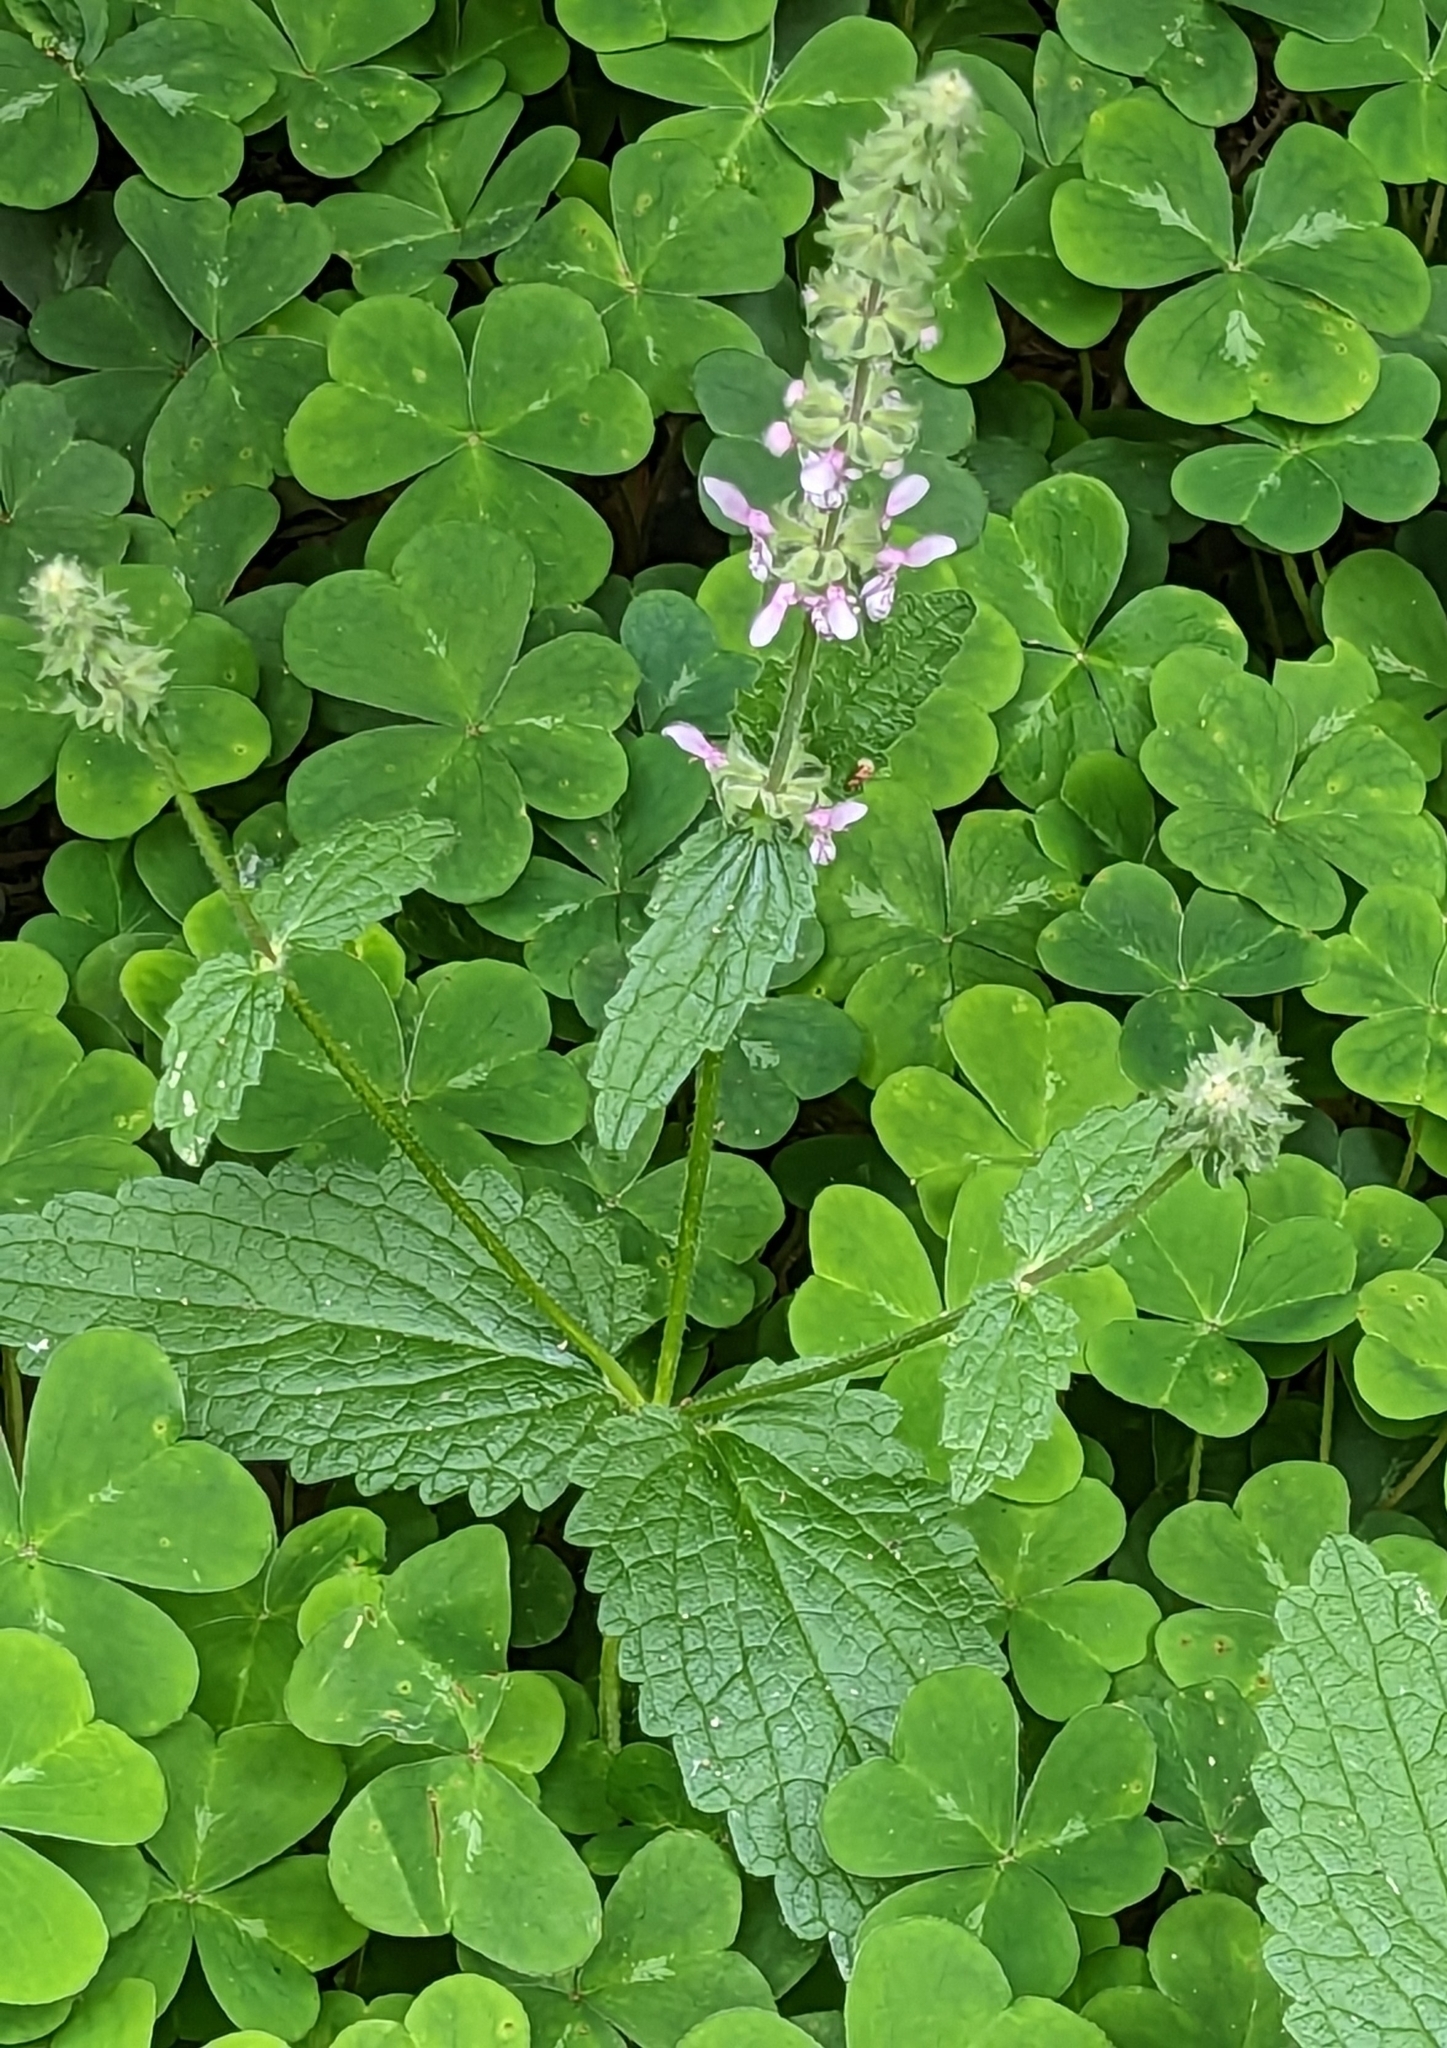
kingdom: Plantae
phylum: Tracheophyta
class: Magnoliopsida
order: Lamiales
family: Lamiaceae
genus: Stachys
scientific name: Stachys rigida
